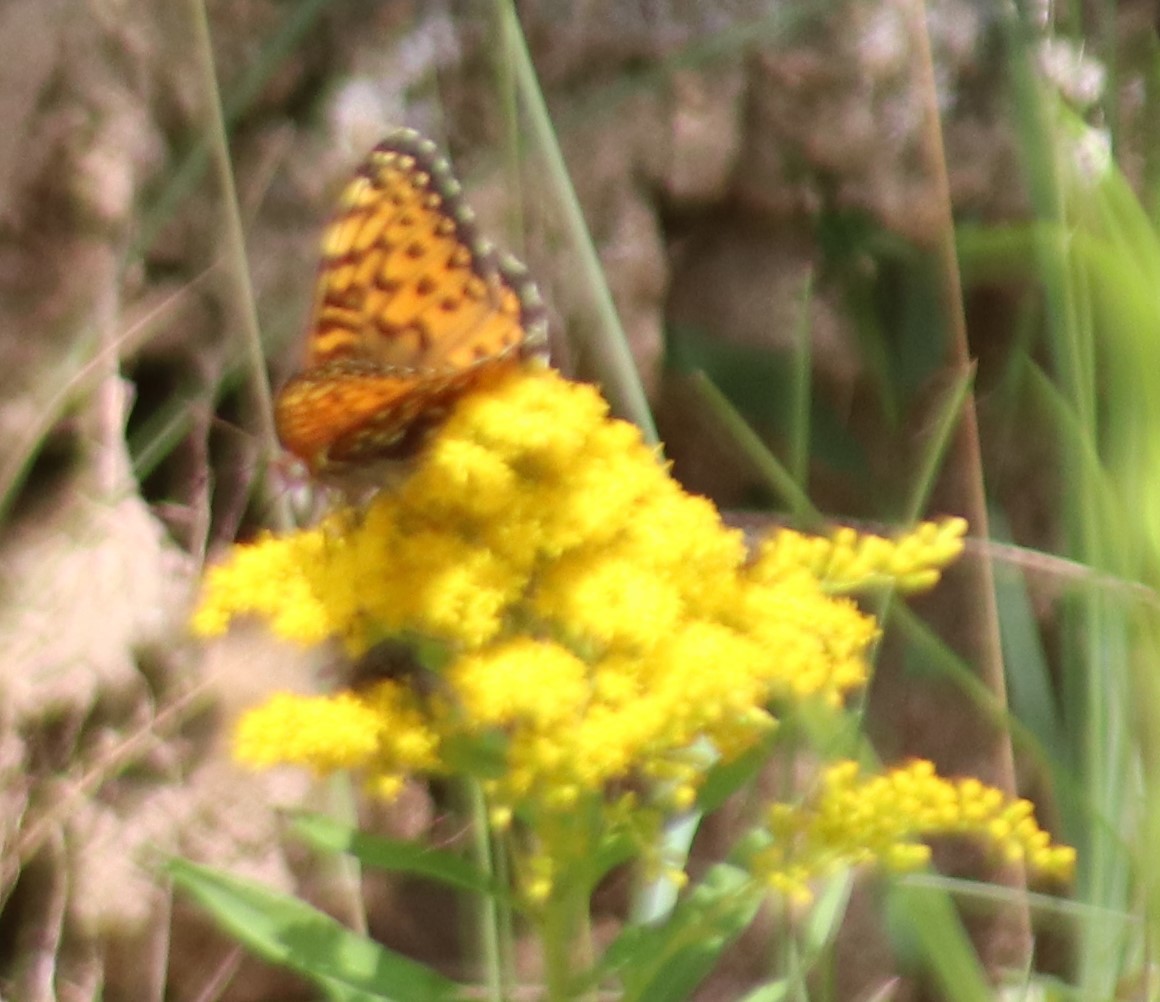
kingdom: Animalia
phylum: Arthropoda
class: Insecta
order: Lepidoptera
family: Nymphalidae
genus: Speyeria
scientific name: Speyeria atlantis
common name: Atlantis fritillary
